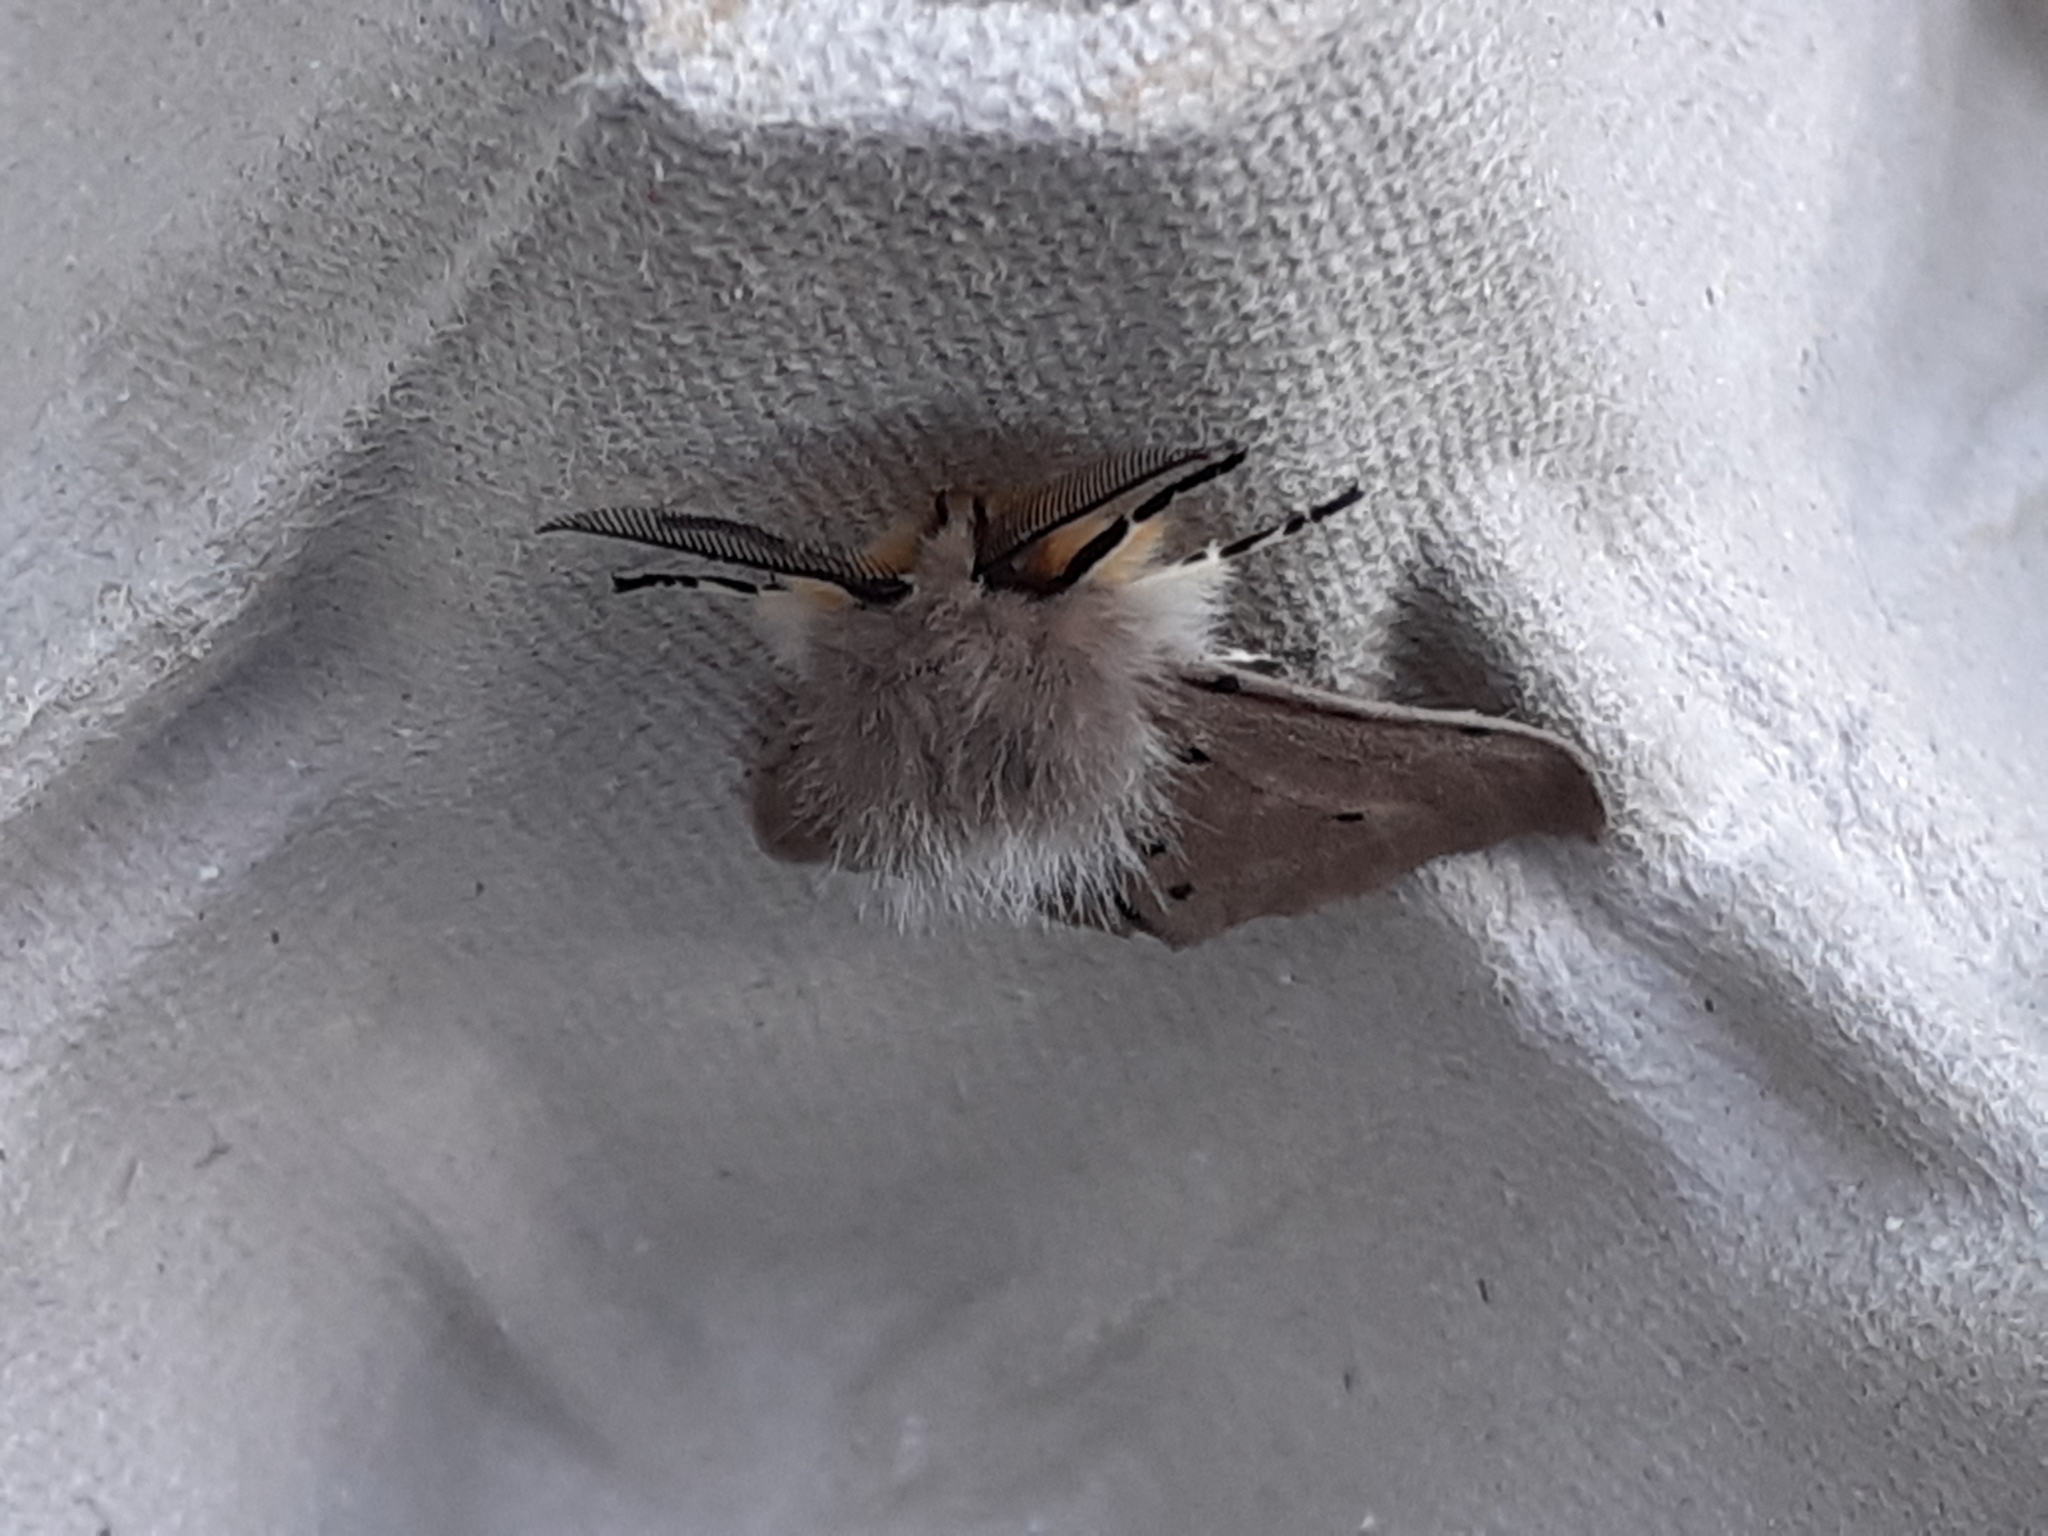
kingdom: Animalia
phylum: Arthropoda
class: Insecta
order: Lepidoptera
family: Erebidae
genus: Diaphora
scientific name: Diaphora mendica
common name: Muslin moth
